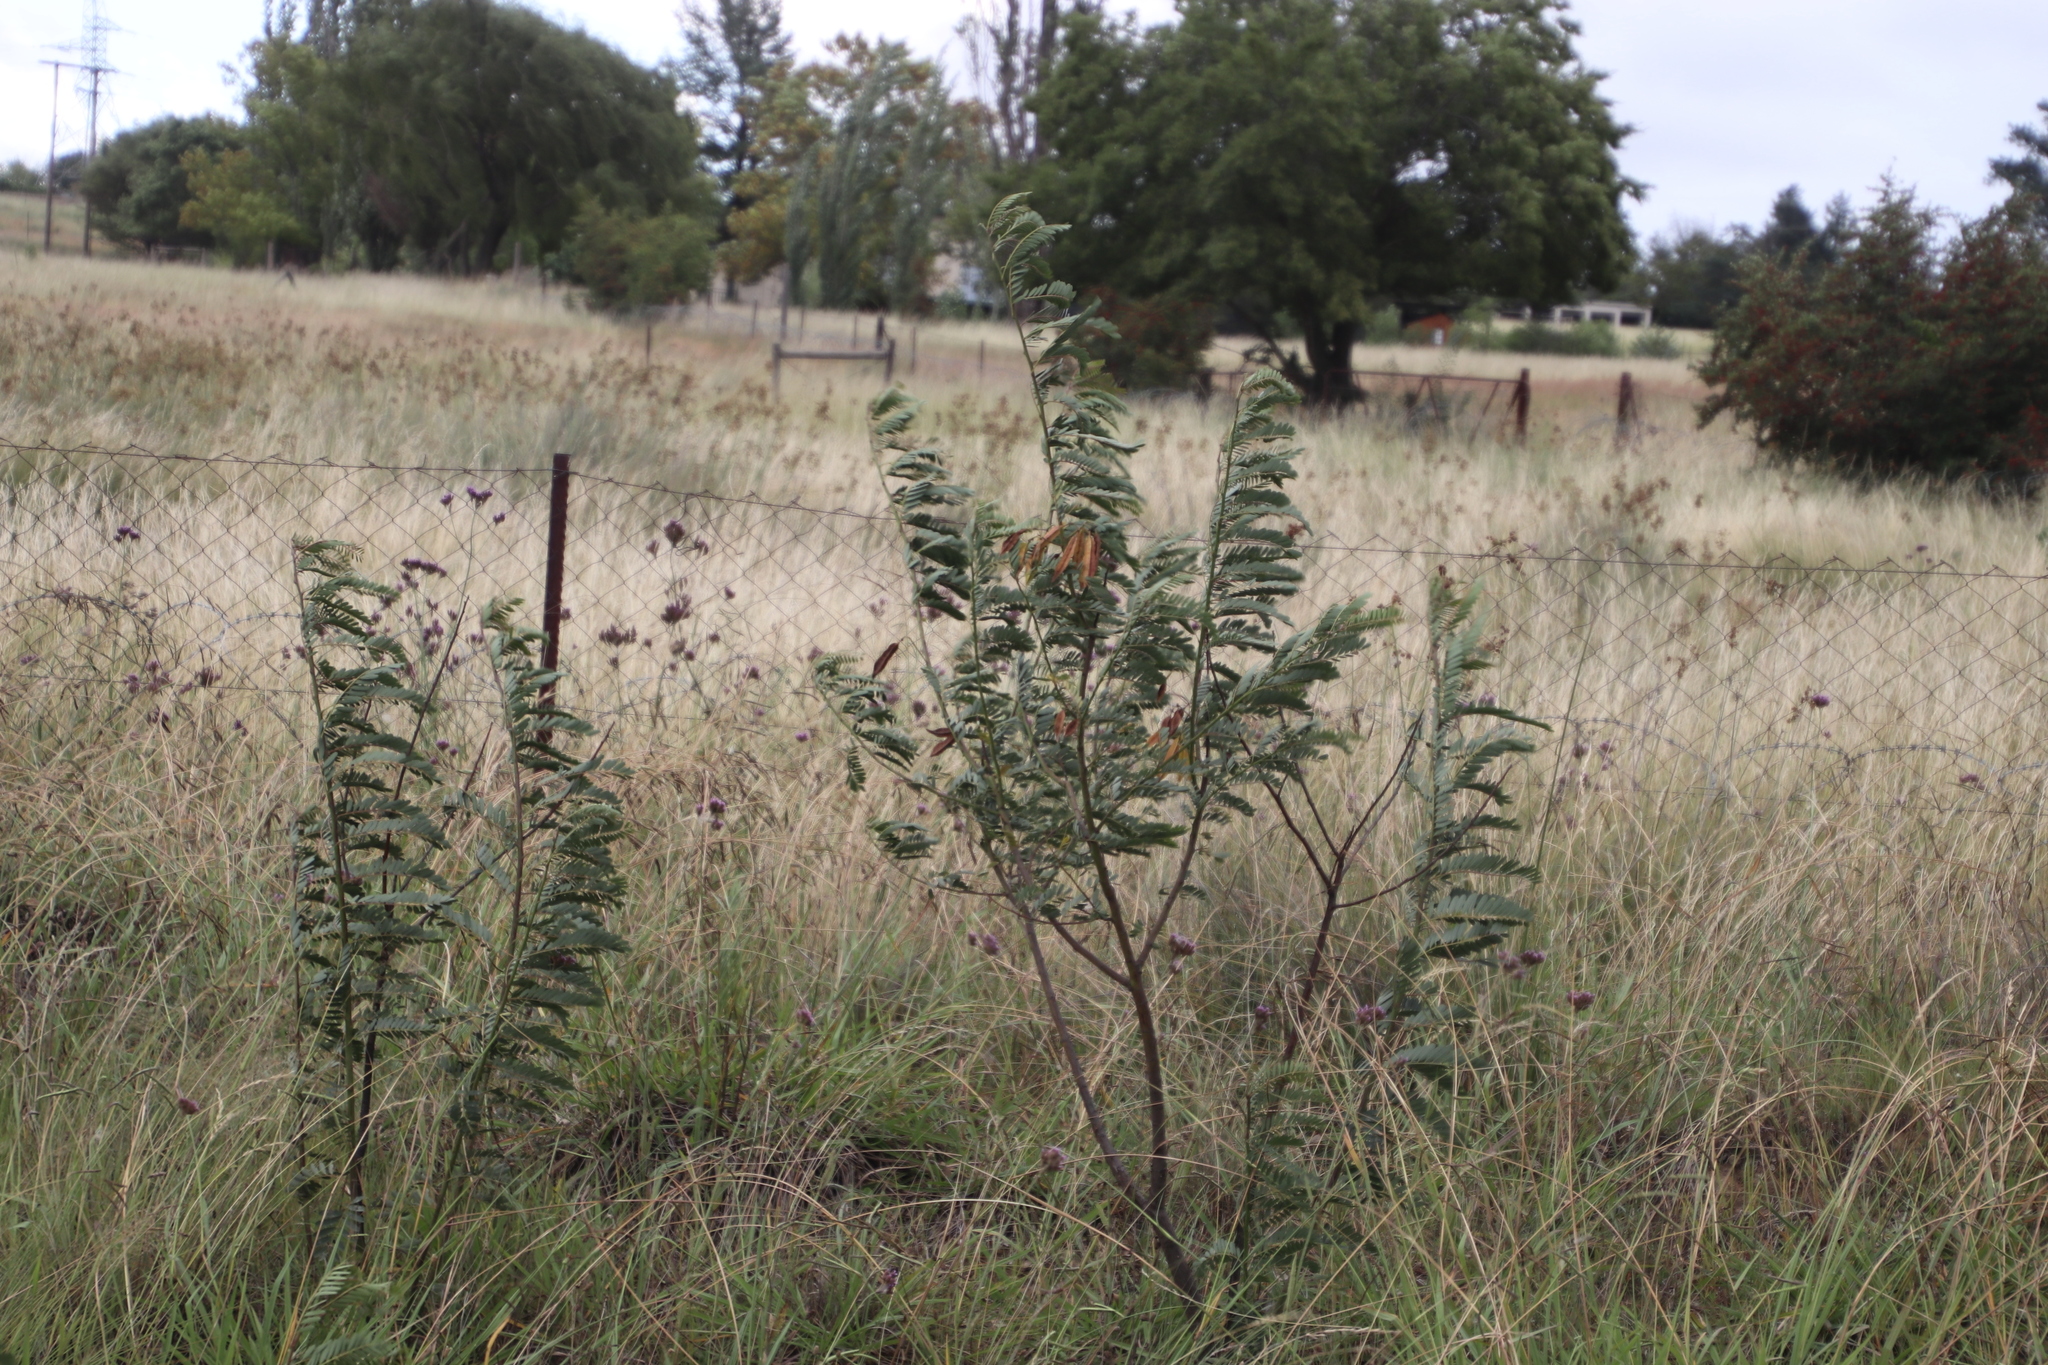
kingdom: Plantae
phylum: Tracheophyta
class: Magnoliopsida
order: Fabales
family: Fabaceae
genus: Sesbania
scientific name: Sesbania punicea
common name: Rattlebox
